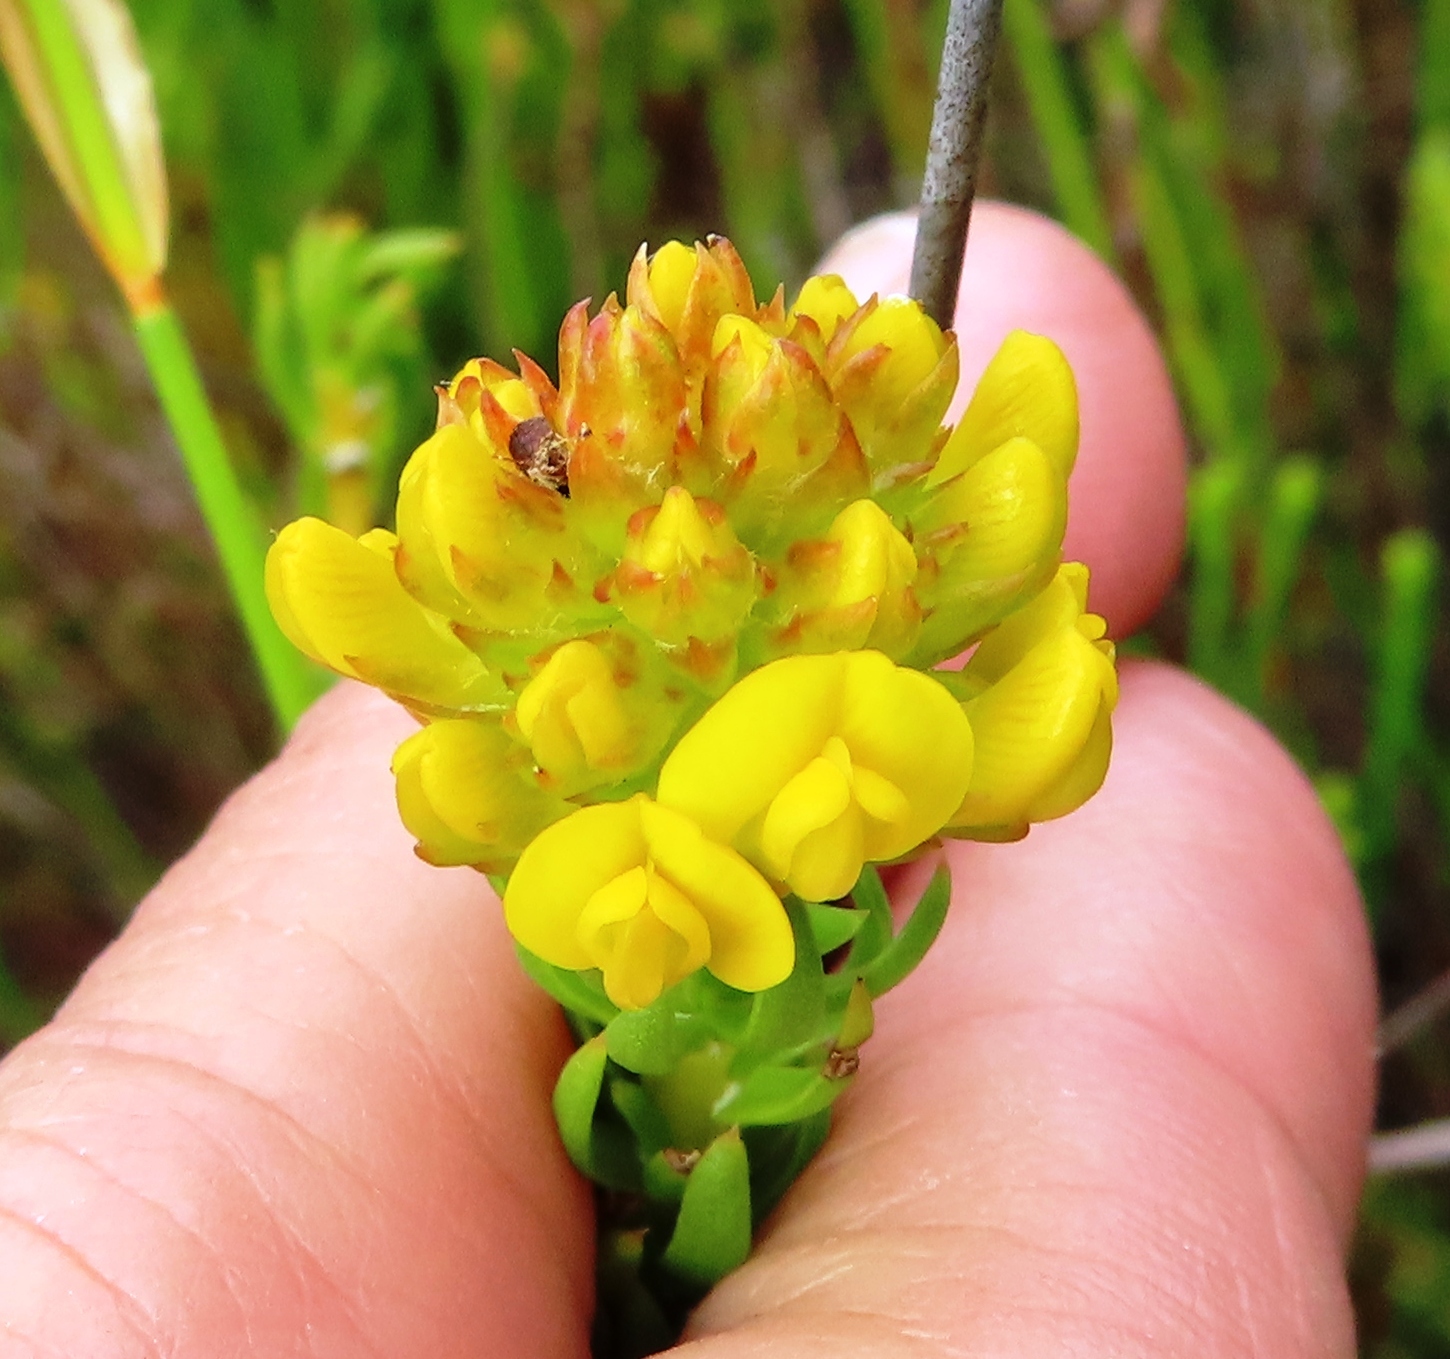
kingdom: Plantae
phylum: Tracheophyta
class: Magnoliopsida
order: Fabales
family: Fabaceae
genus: Aspalathus
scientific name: Aspalathus callosa
